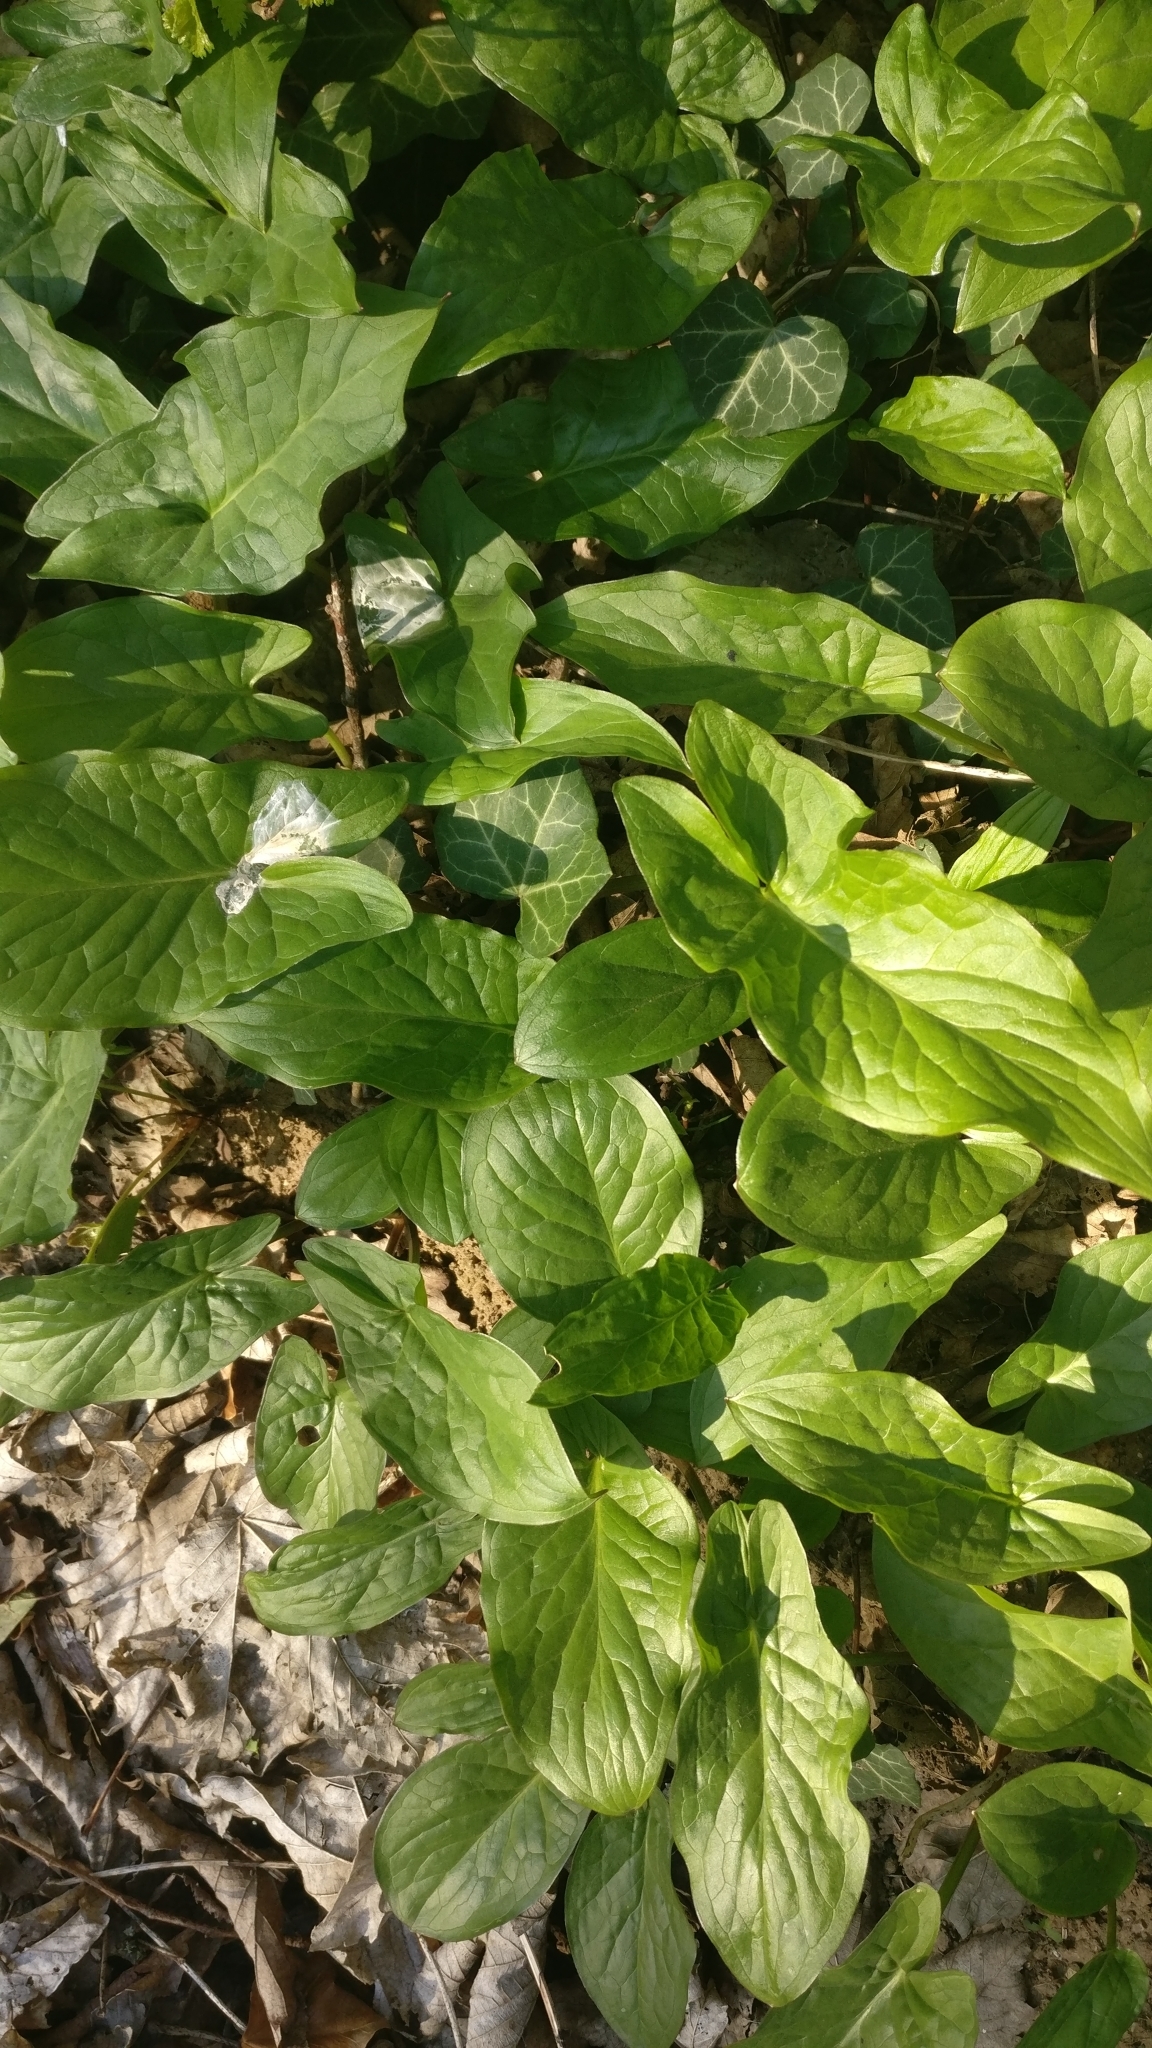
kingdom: Plantae
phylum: Tracheophyta
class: Liliopsida
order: Alismatales
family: Araceae
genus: Arum
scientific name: Arum maculatum
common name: Lords-and-ladies
